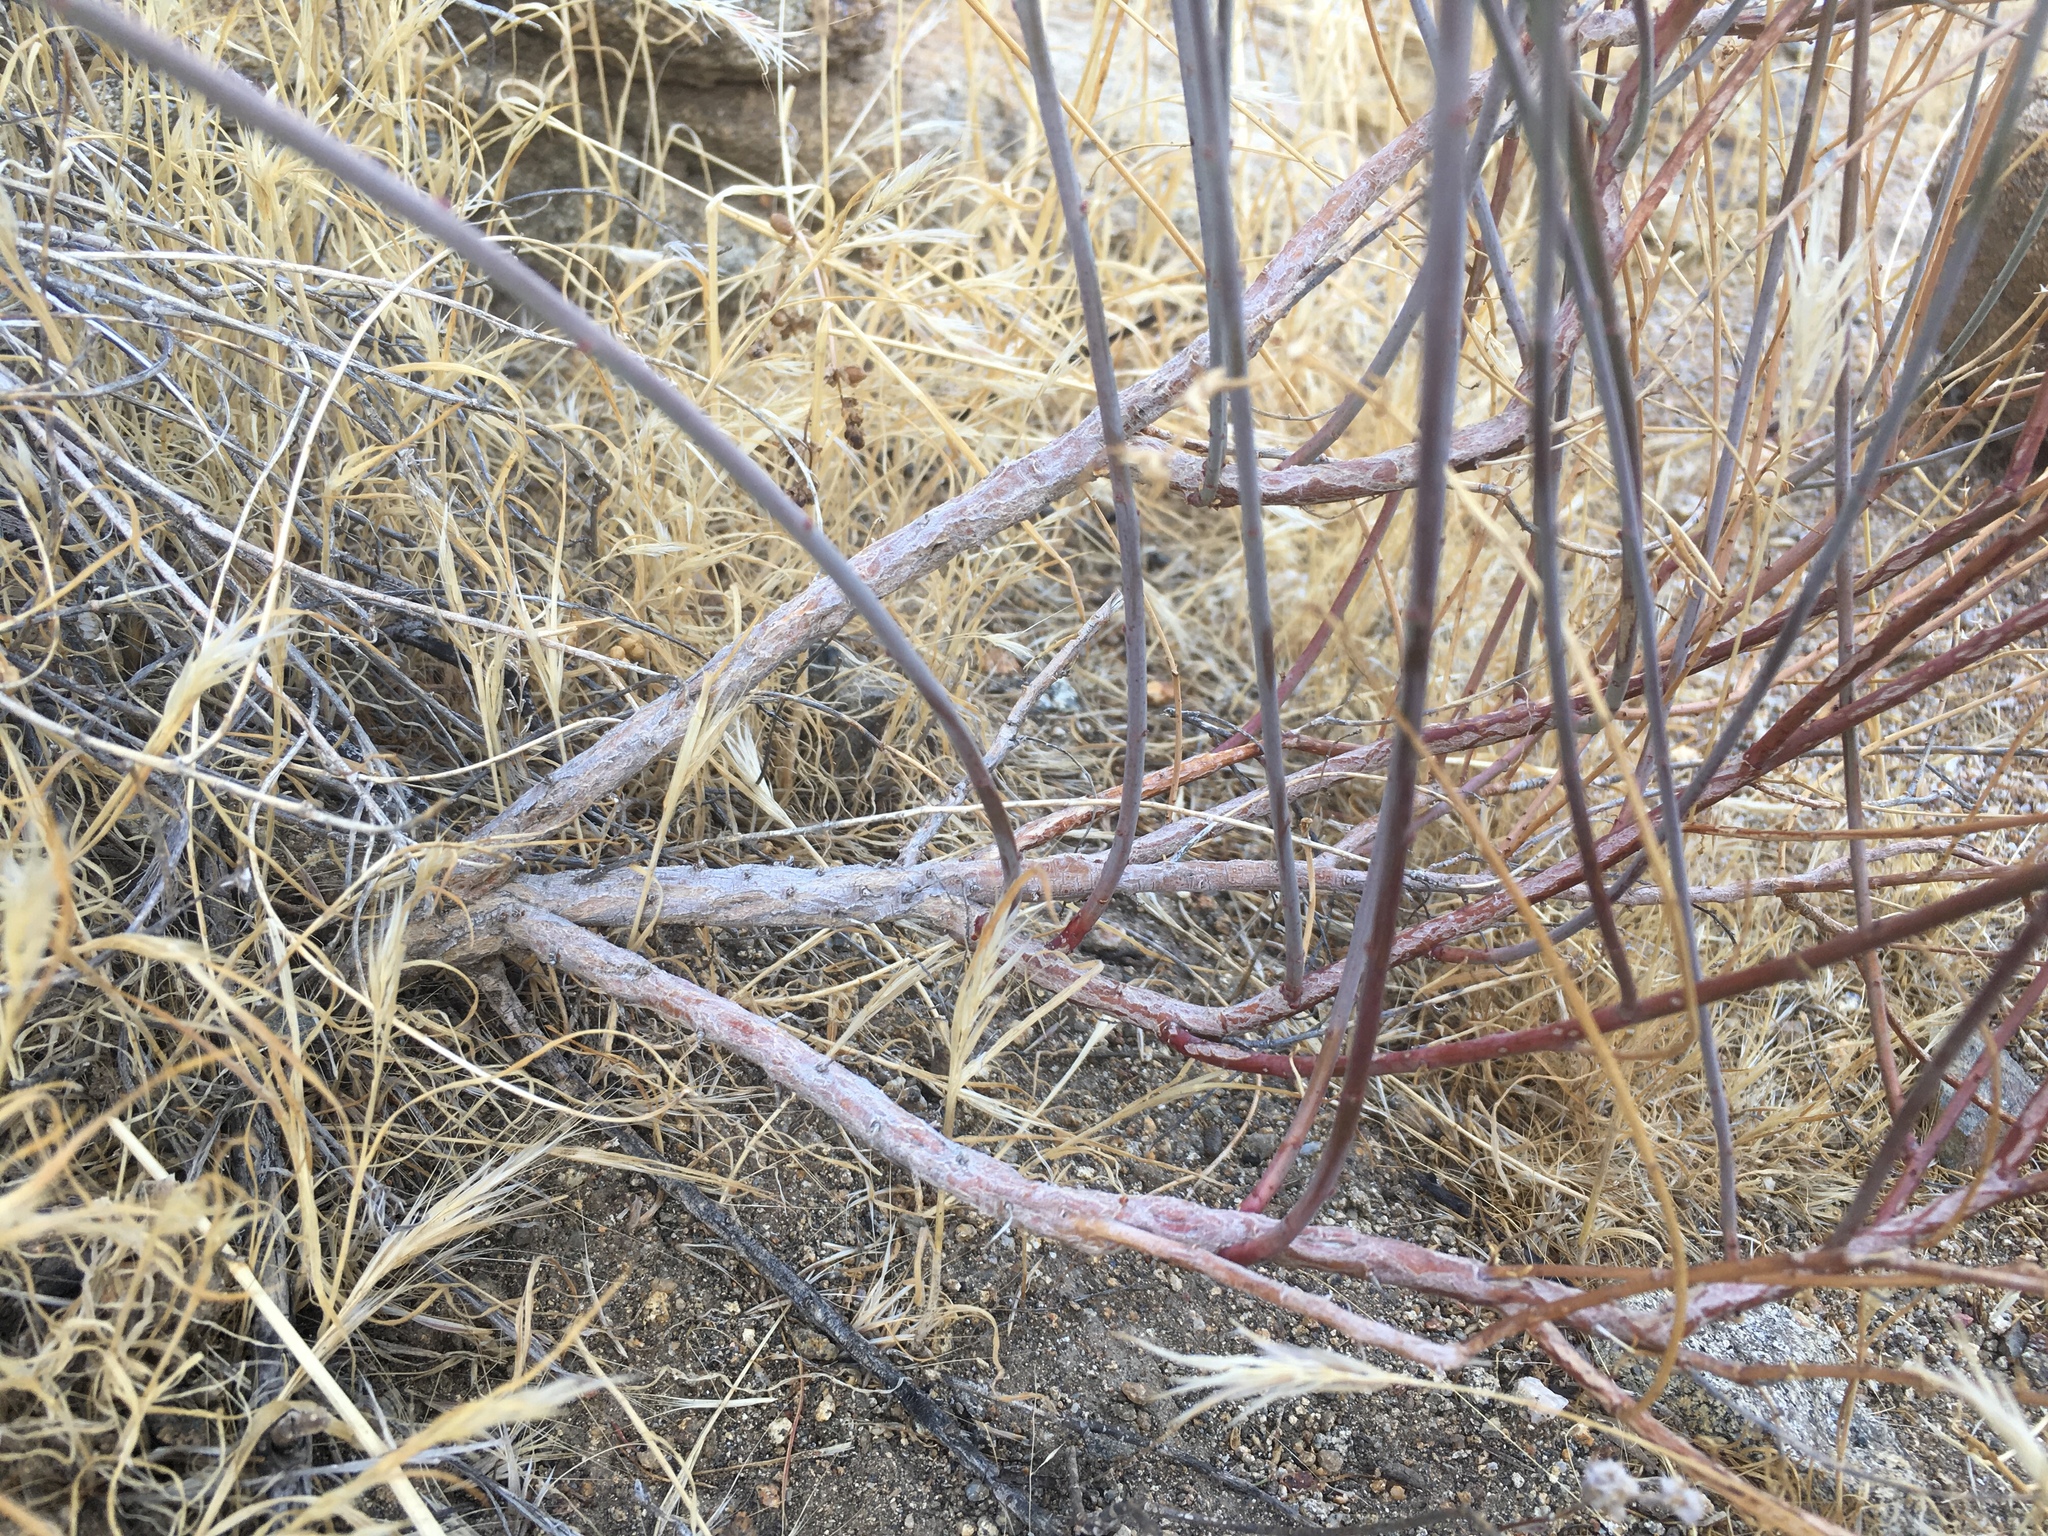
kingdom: Plantae
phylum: Tracheophyta
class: Magnoliopsida
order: Malpighiales
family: Euphorbiaceae
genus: Stillingia
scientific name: Stillingia linearifolia
